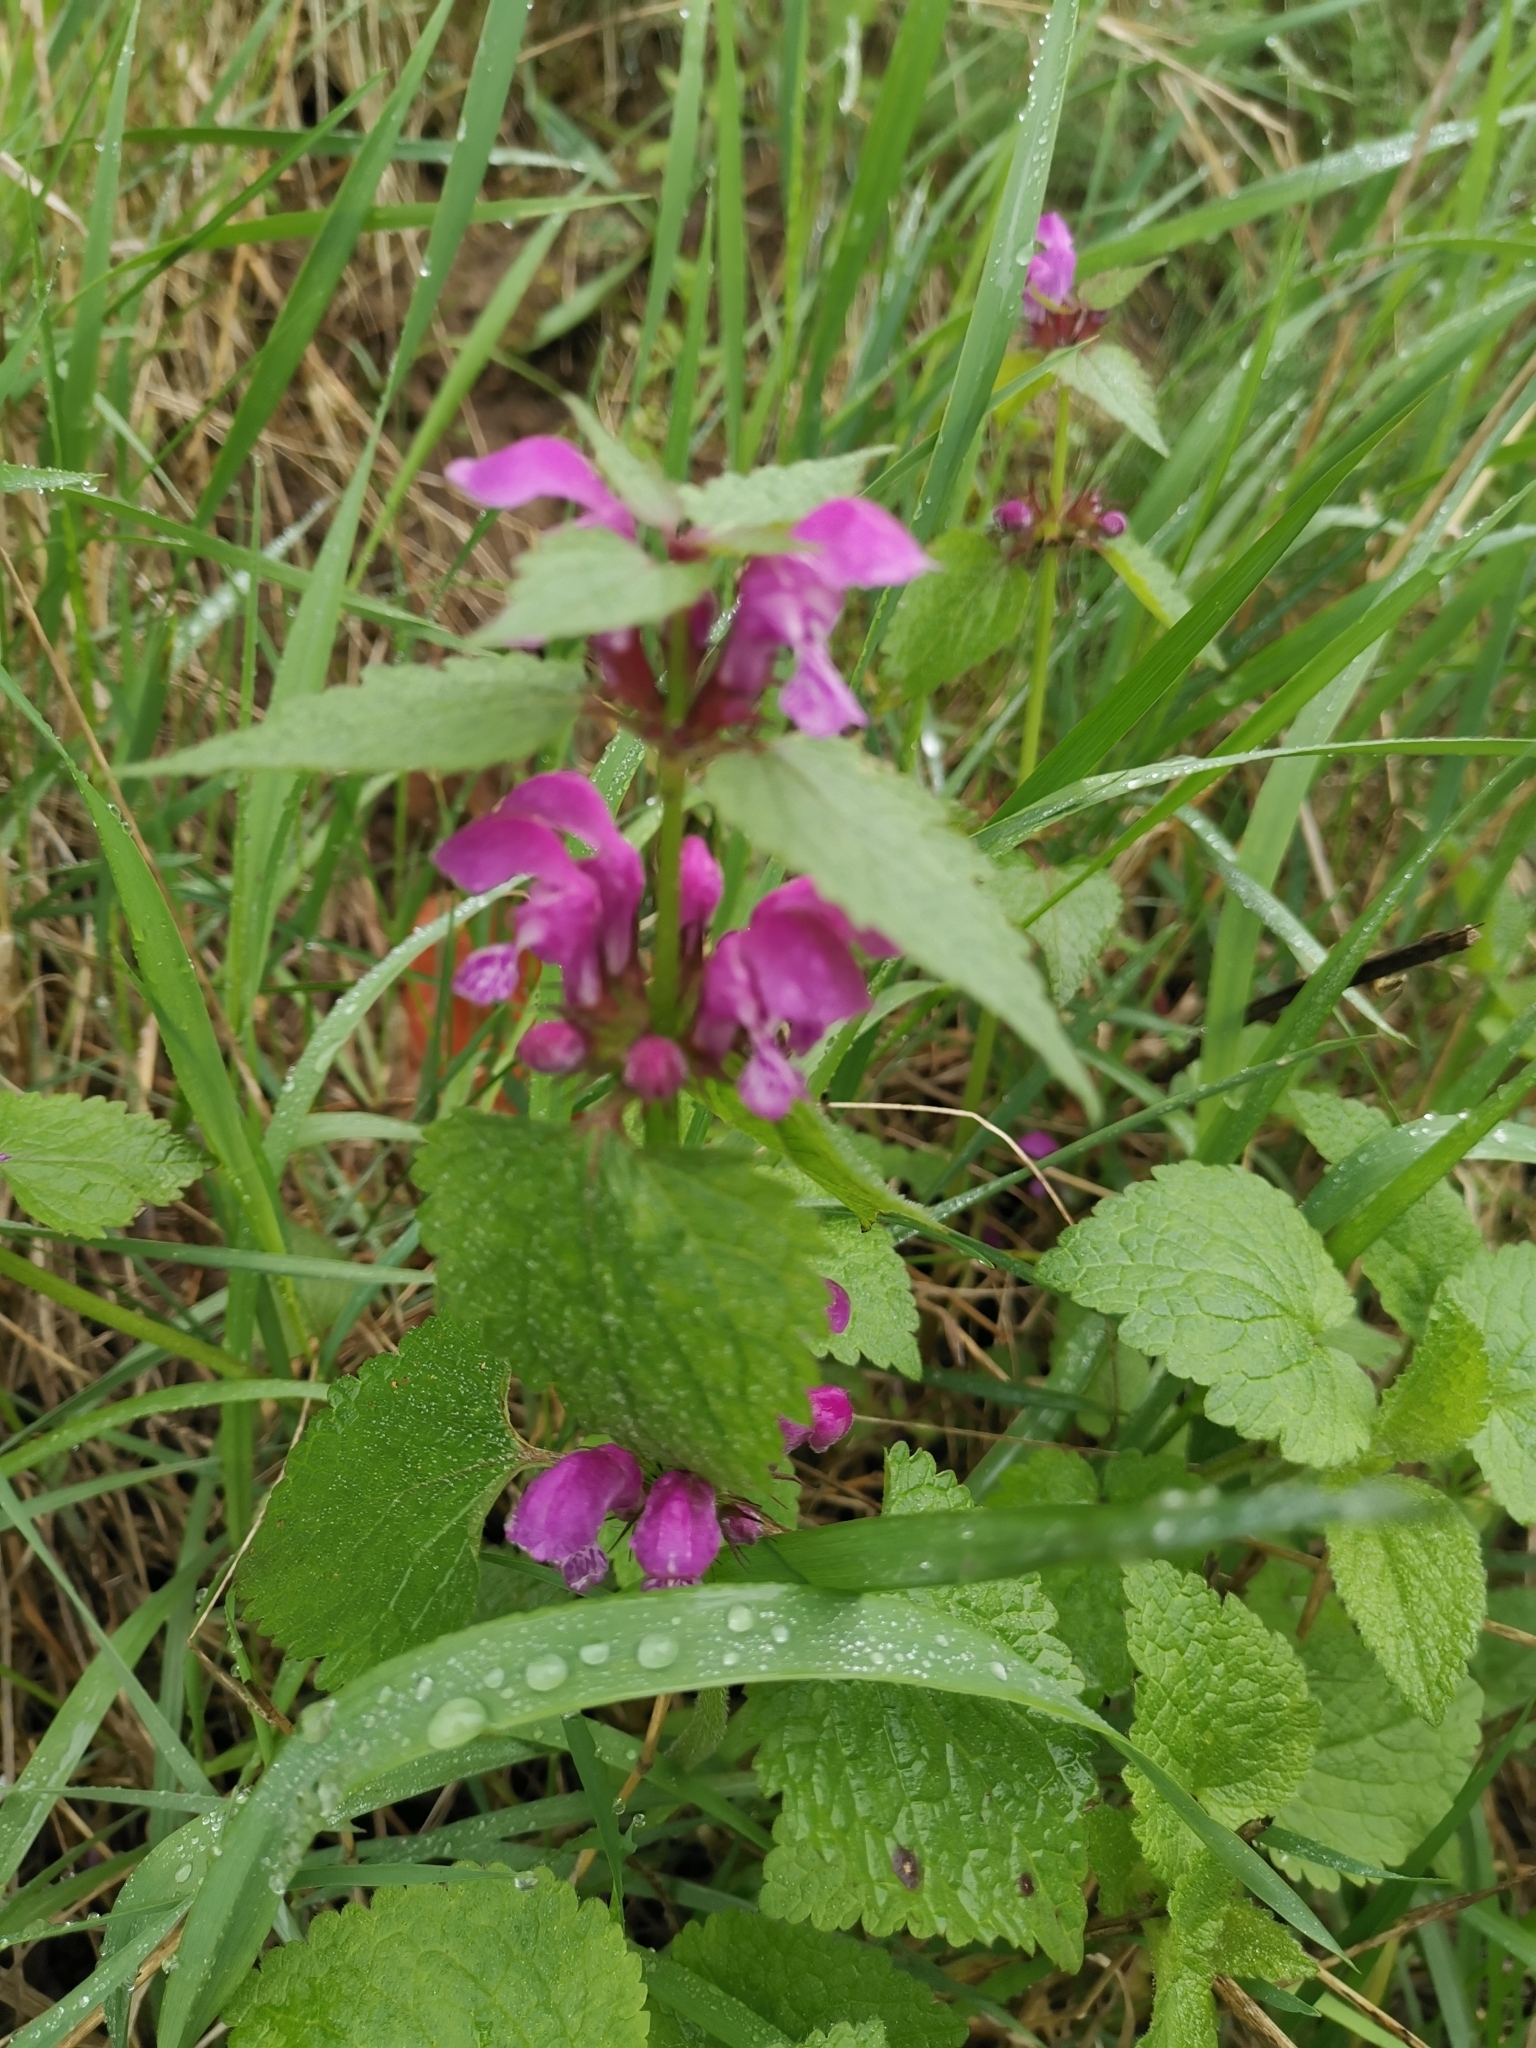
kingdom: Plantae
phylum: Tracheophyta
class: Magnoliopsida
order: Lamiales
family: Lamiaceae
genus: Lamium
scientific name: Lamium maculatum
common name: Spotted dead-nettle
